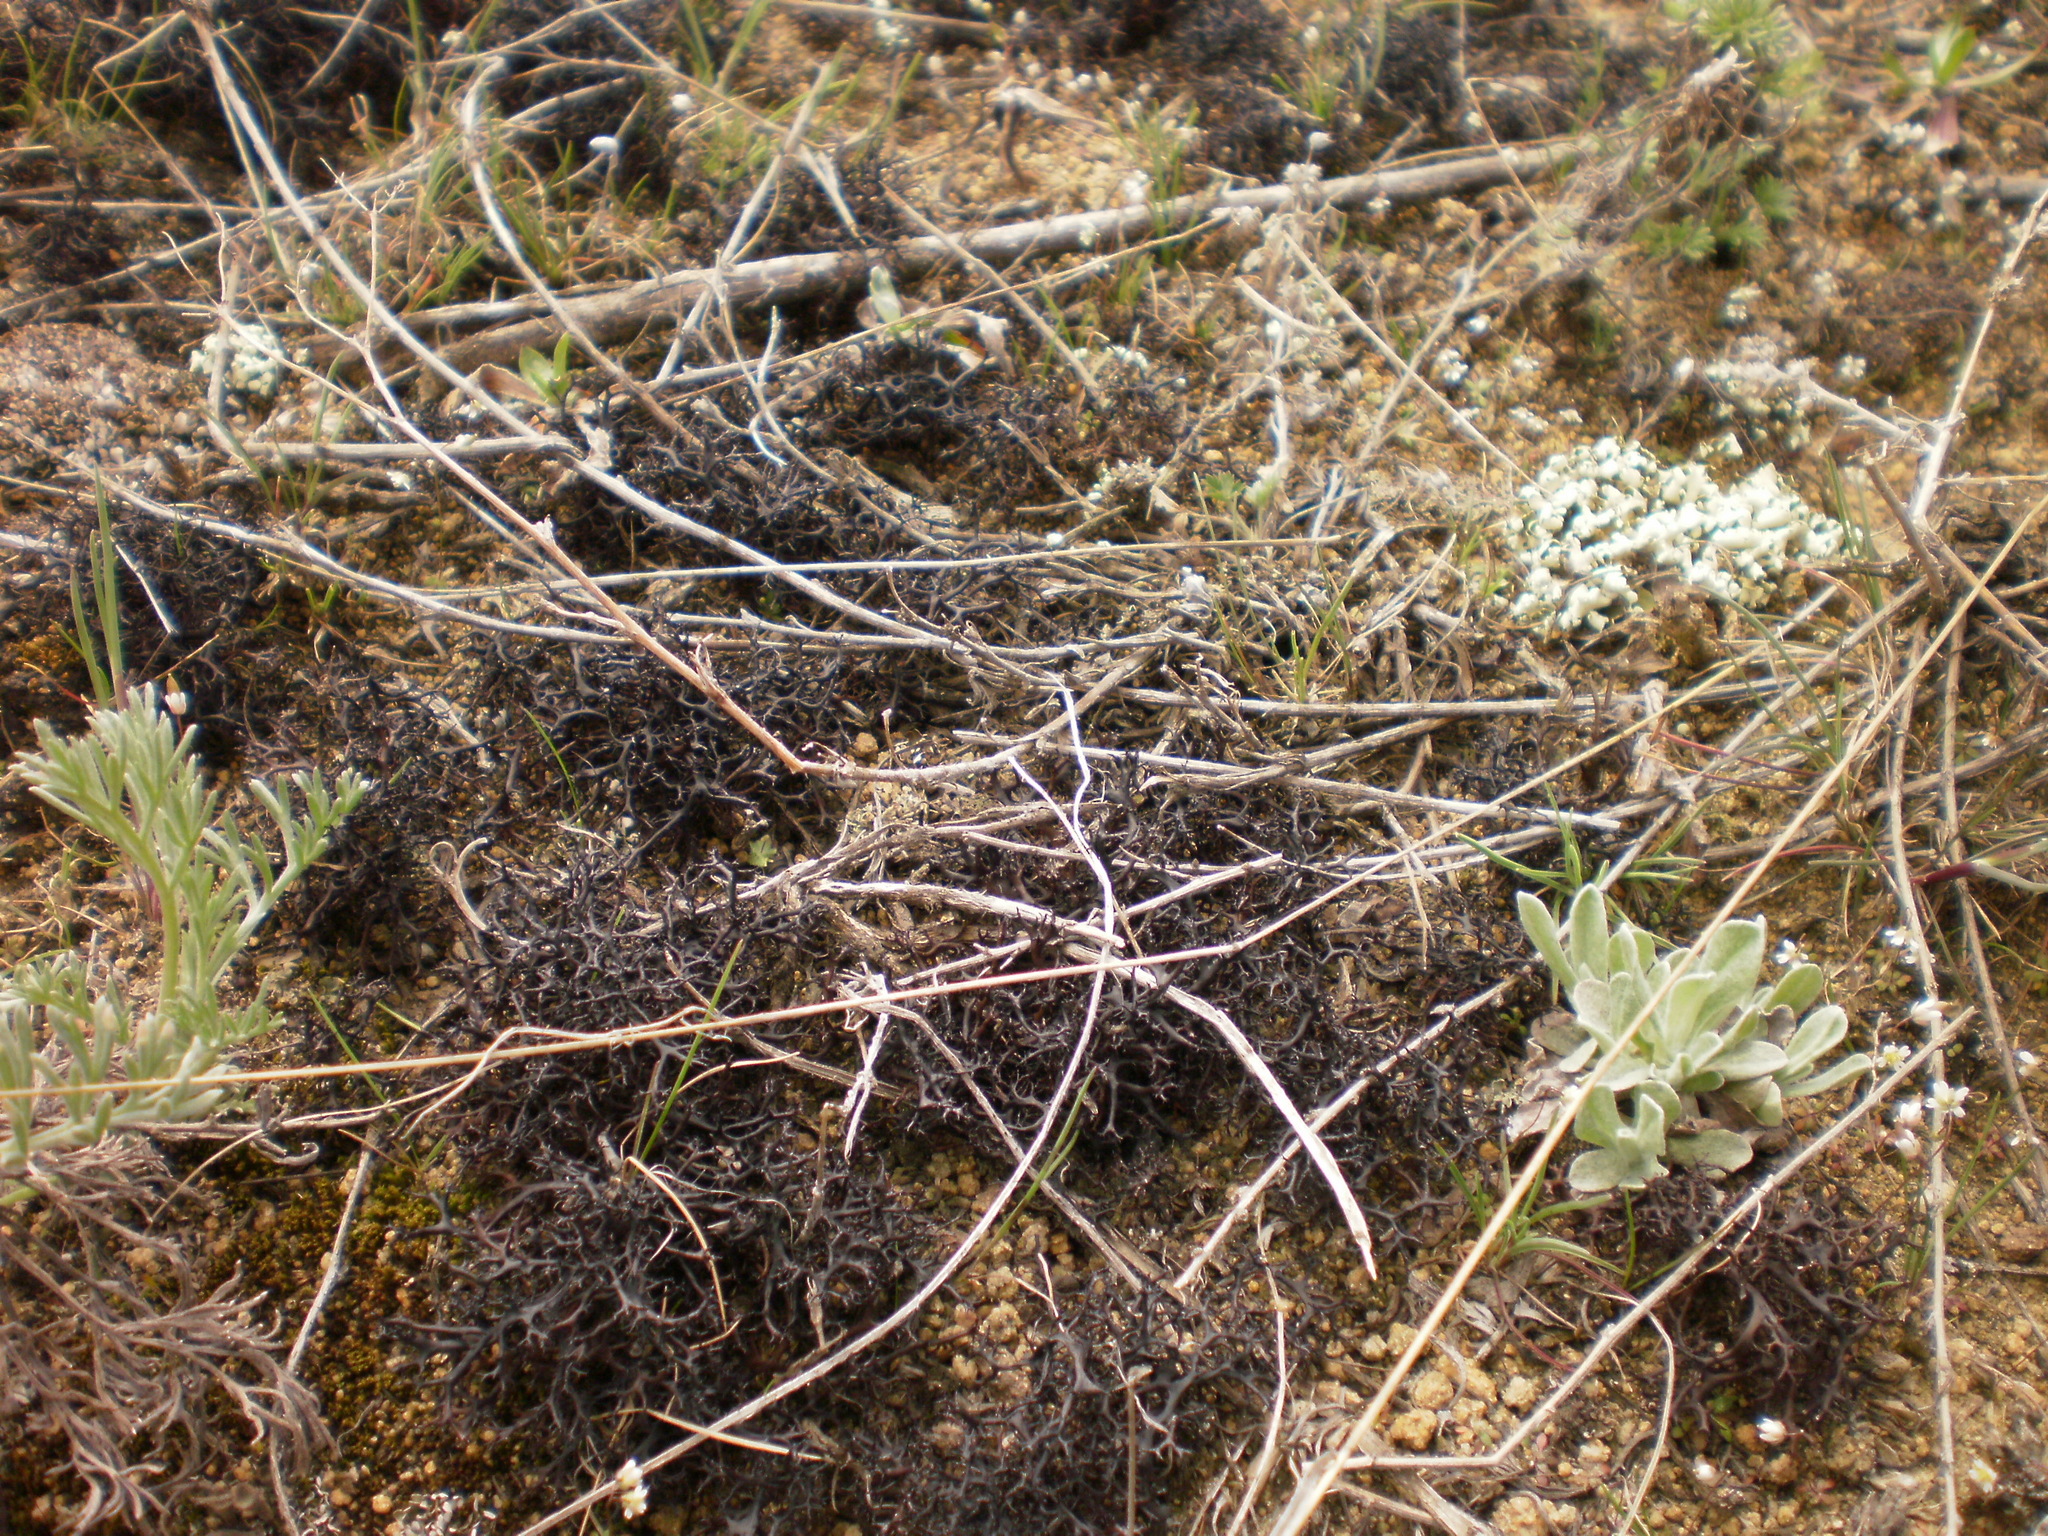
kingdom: Fungi
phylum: Ascomycota
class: Lecanoromycetes
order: Lecanorales
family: Parmeliaceae
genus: Cetraria
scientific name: Cetraria aculeata
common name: Spiny heath lichen
